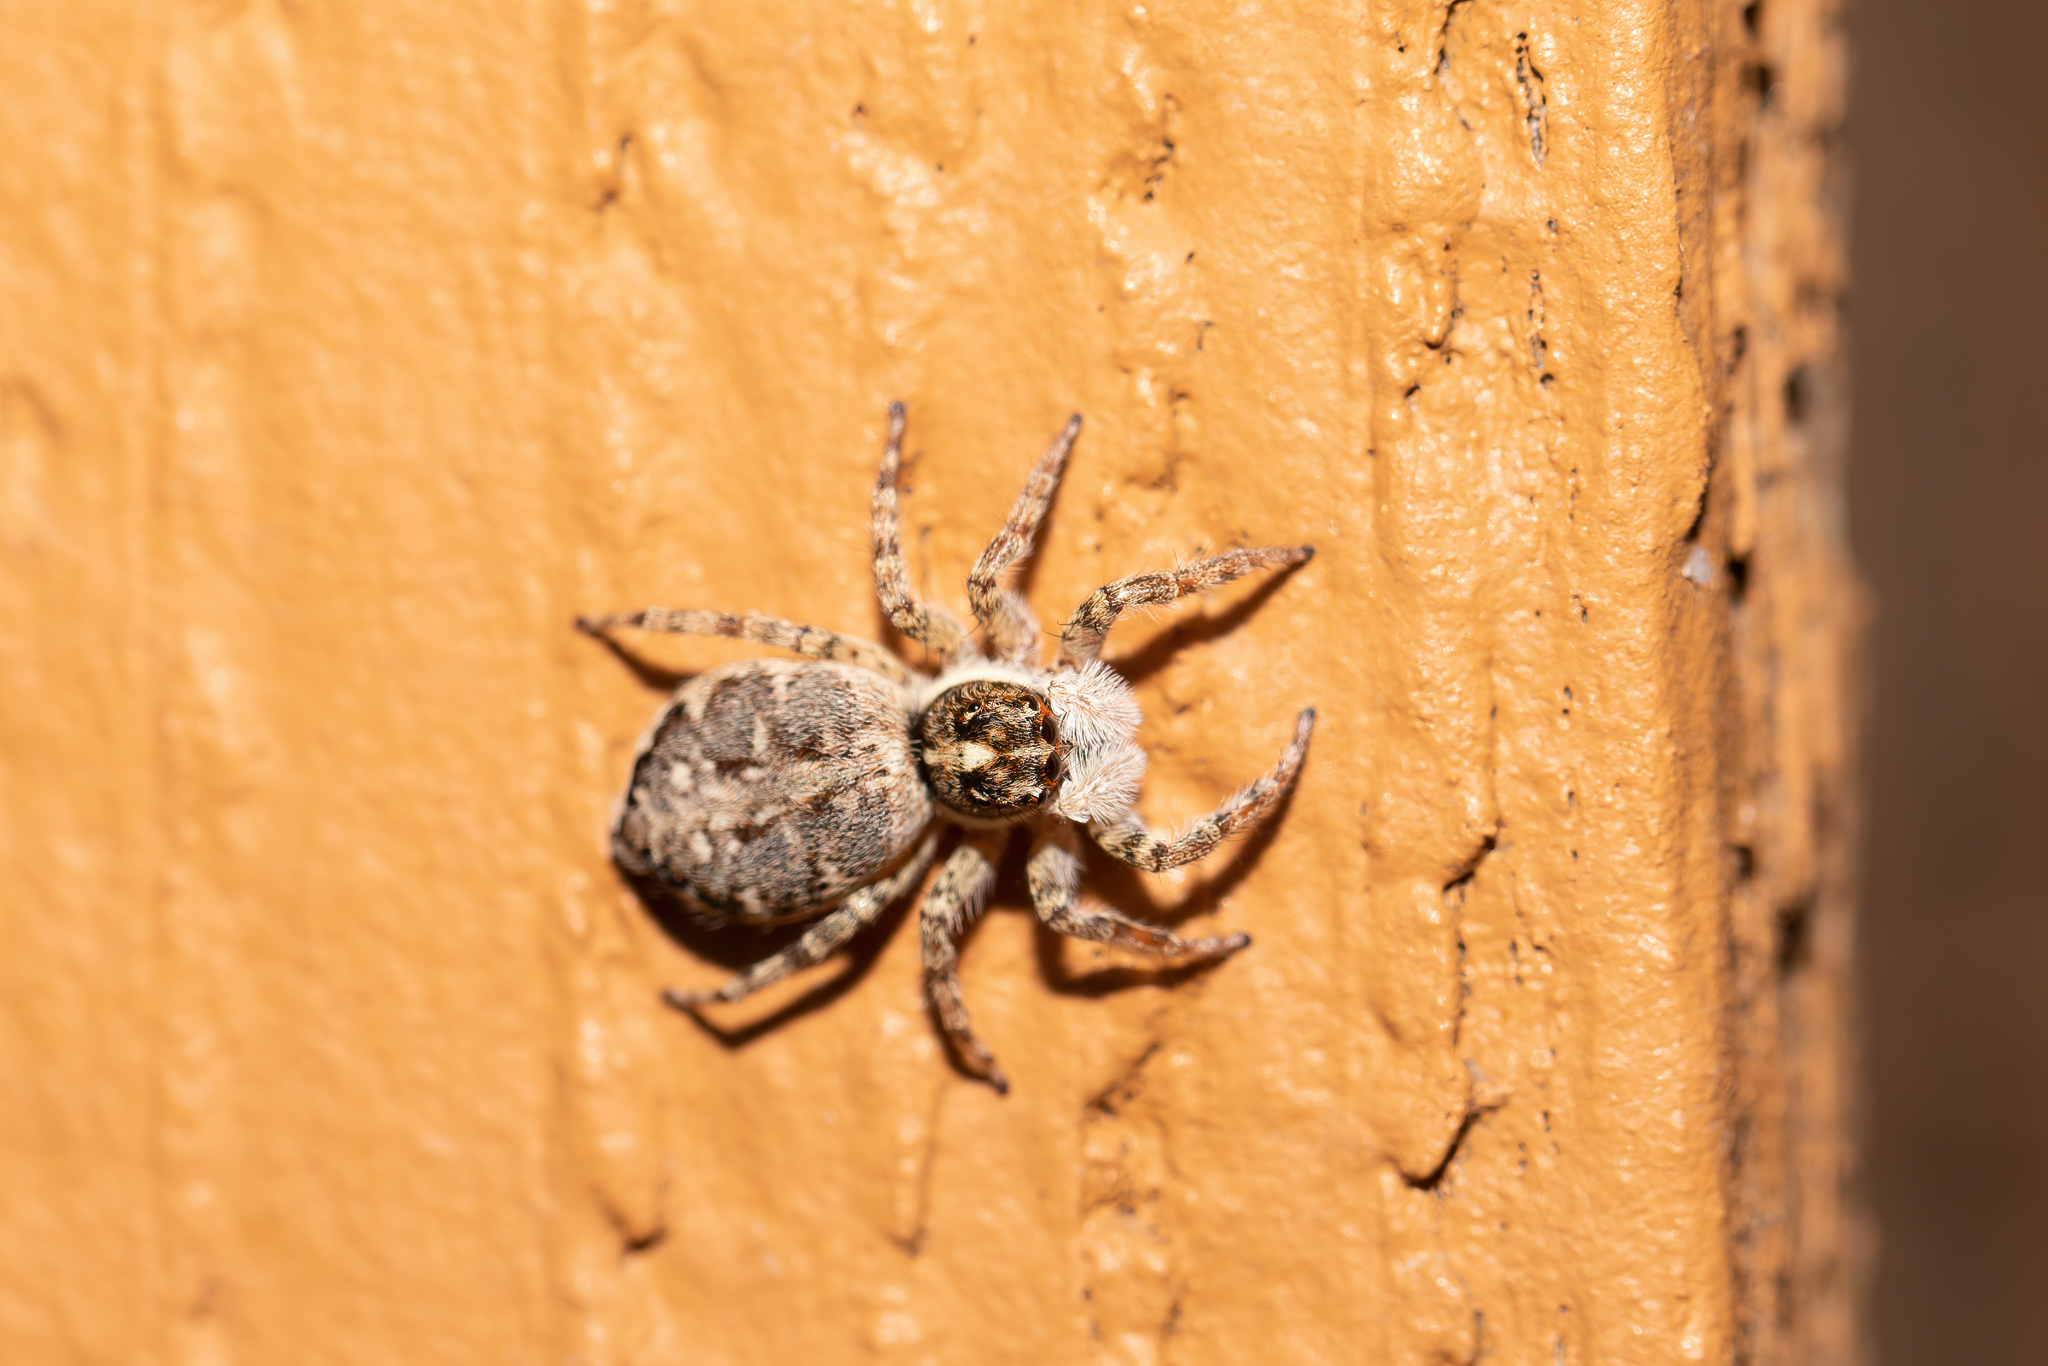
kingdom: Animalia
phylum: Arthropoda
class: Arachnida
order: Araneae
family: Salticidae
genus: Menemerus
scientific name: Menemerus semilimbatus
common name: Jumping spider
